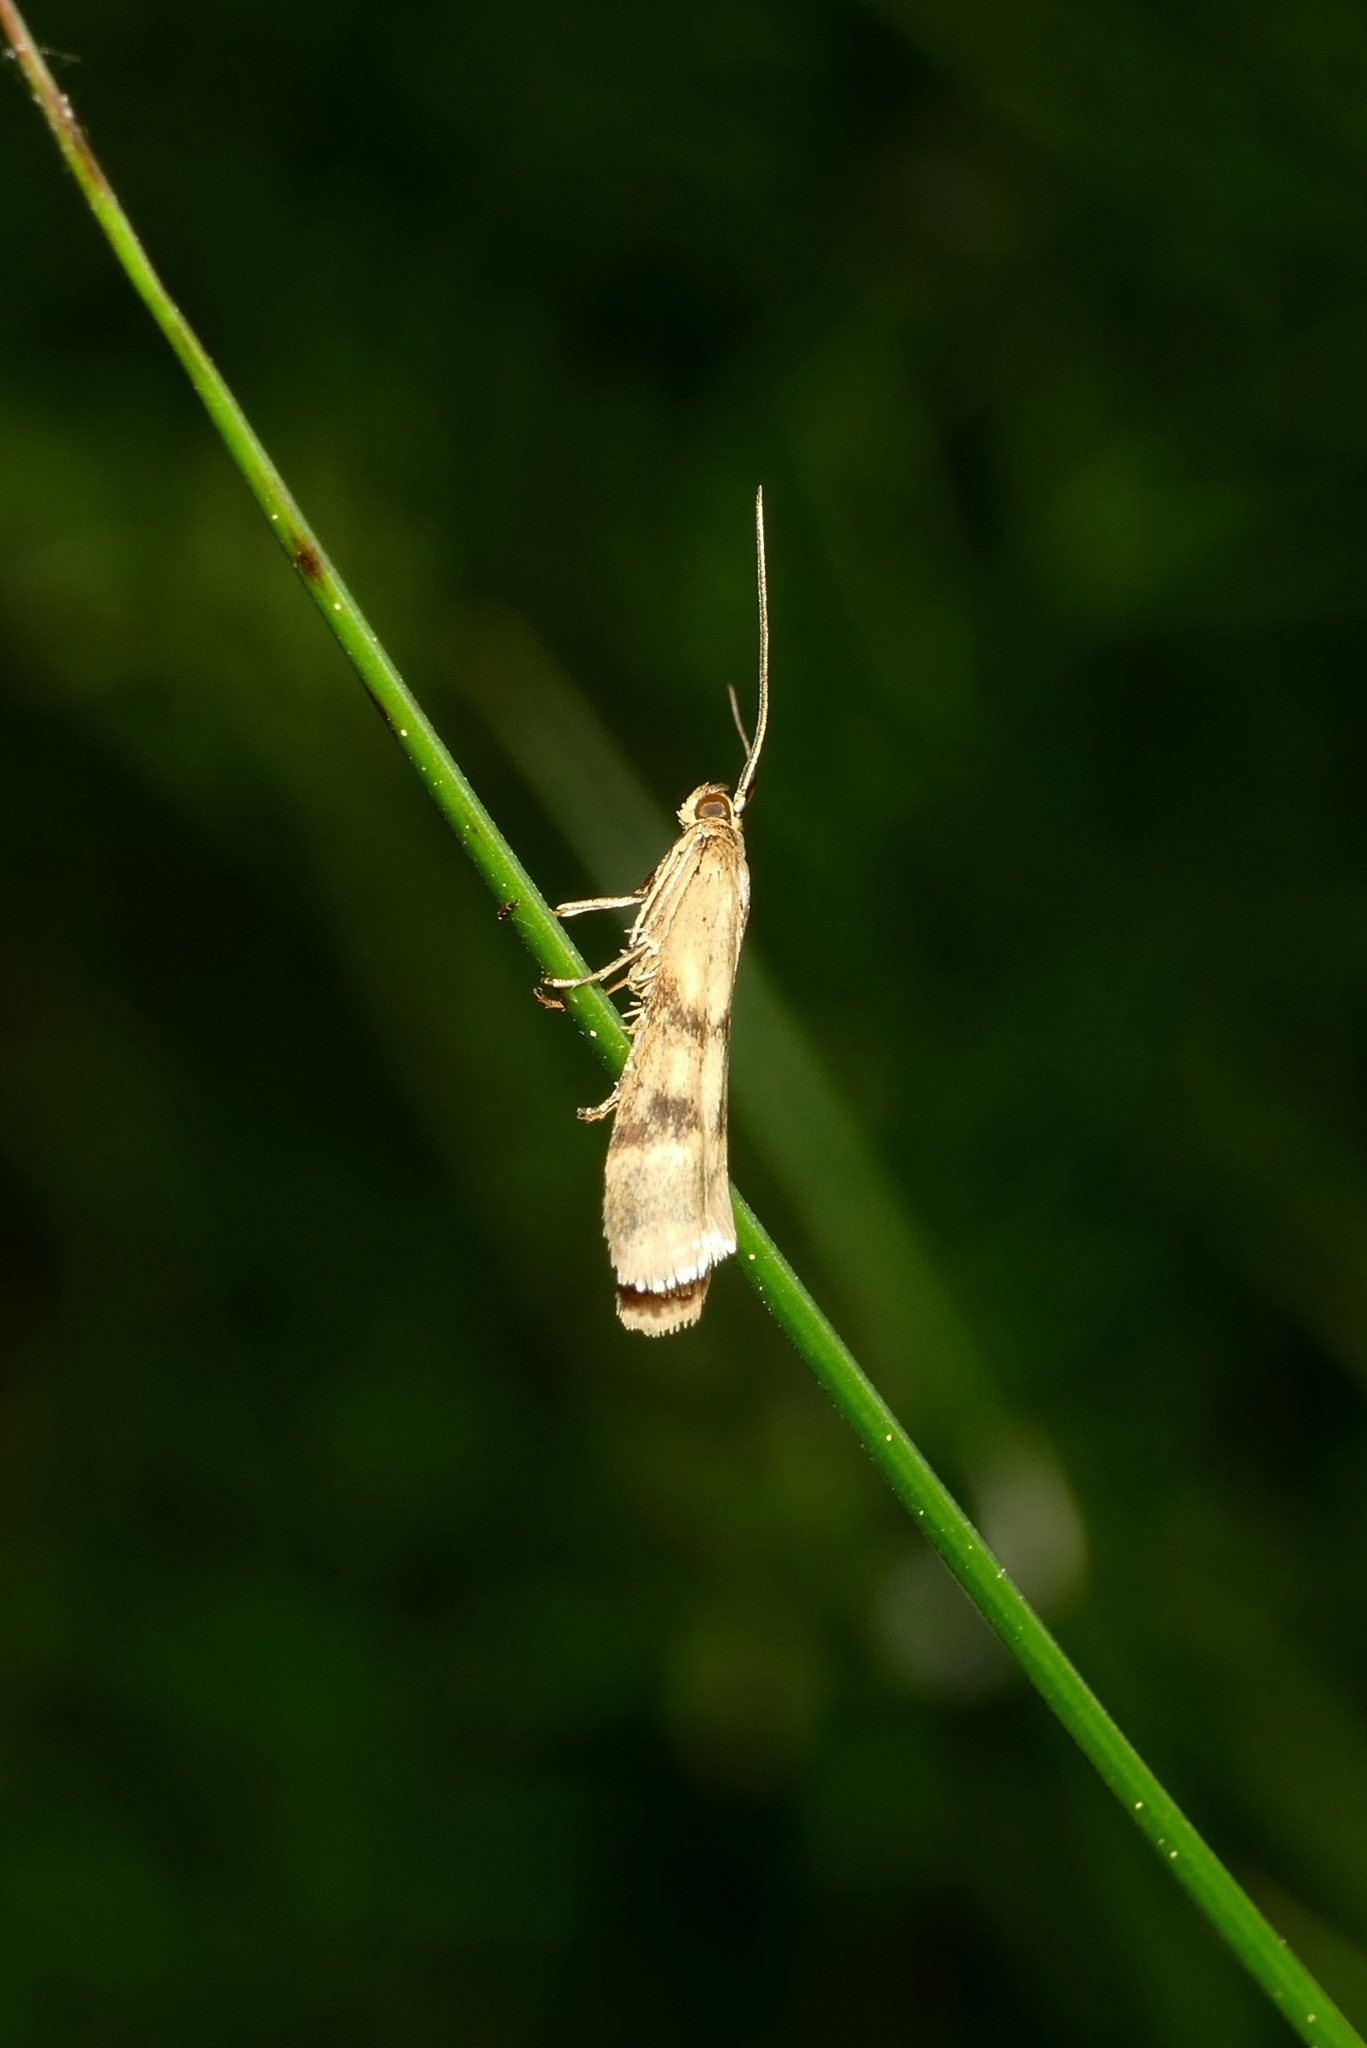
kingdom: Animalia
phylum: Arthropoda
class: Insecta
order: Lepidoptera
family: Pyralidae
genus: Homoeosoma
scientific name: Homoeosoma sinuella
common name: Twin-barred knot-horn
